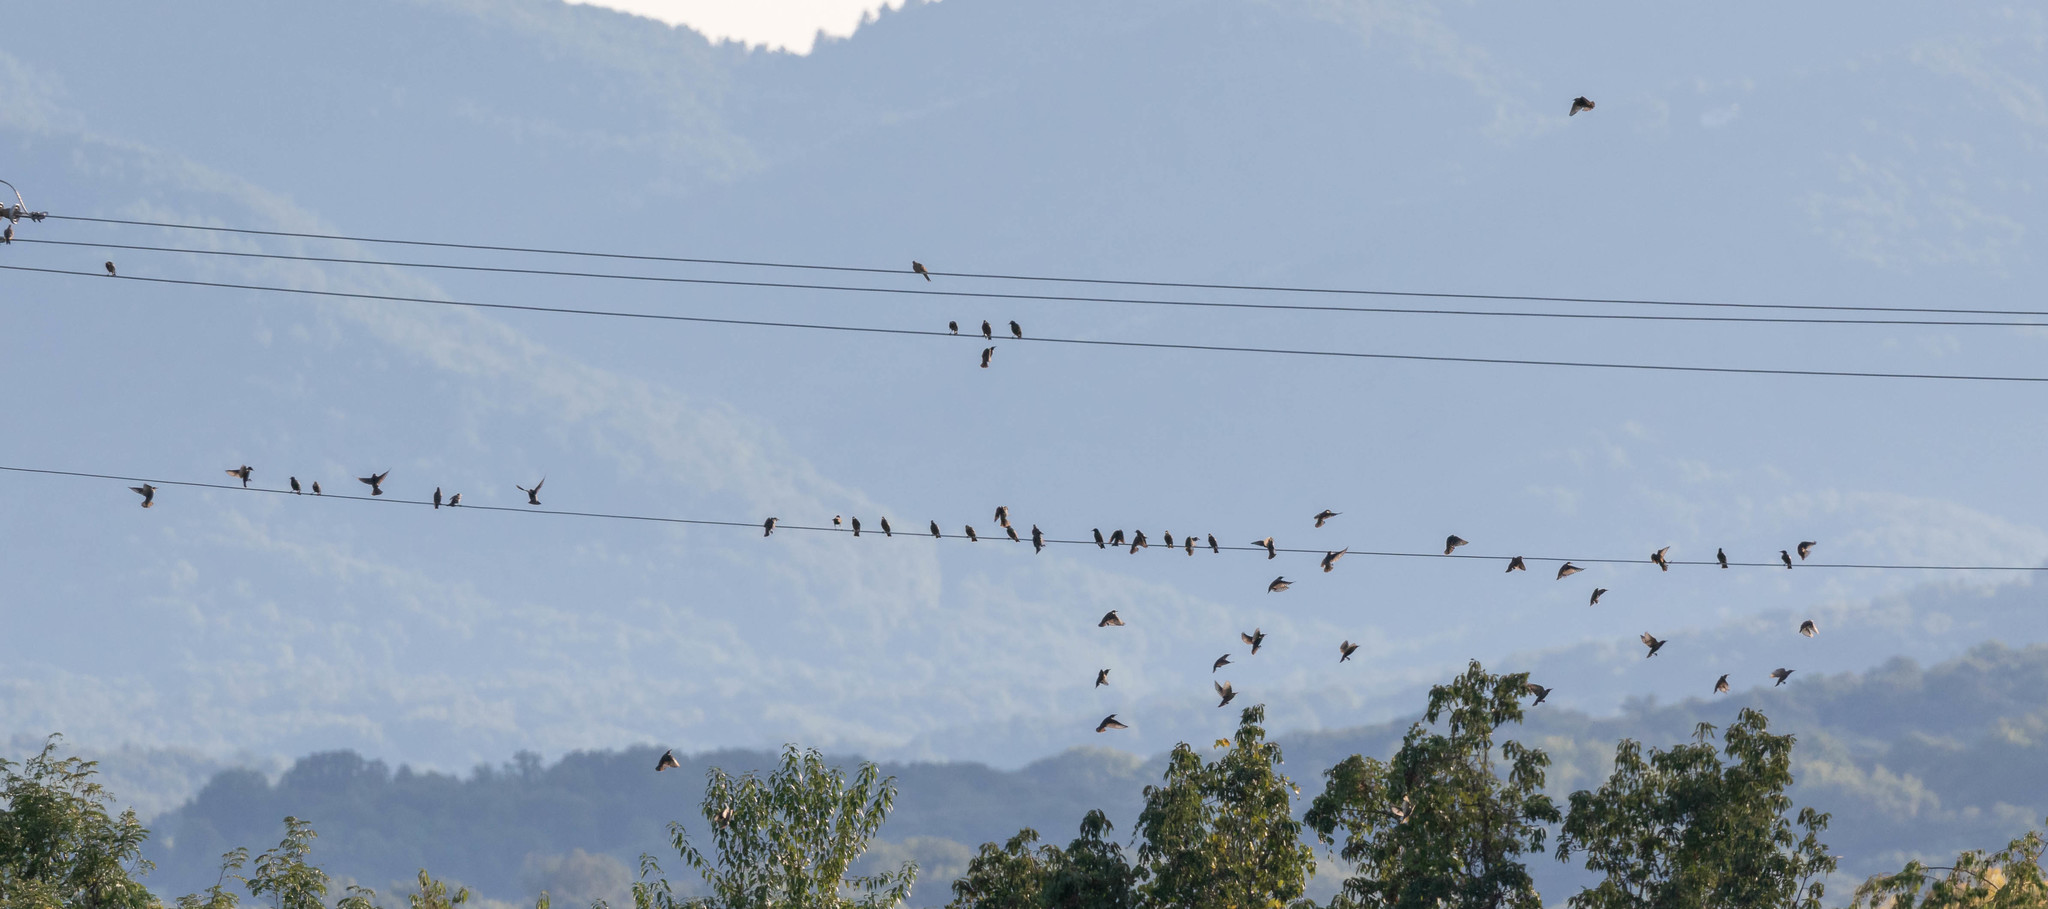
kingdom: Animalia
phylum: Chordata
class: Aves
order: Passeriformes
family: Sturnidae
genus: Sturnus
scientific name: Sturnus vulgaris
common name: Common starling
